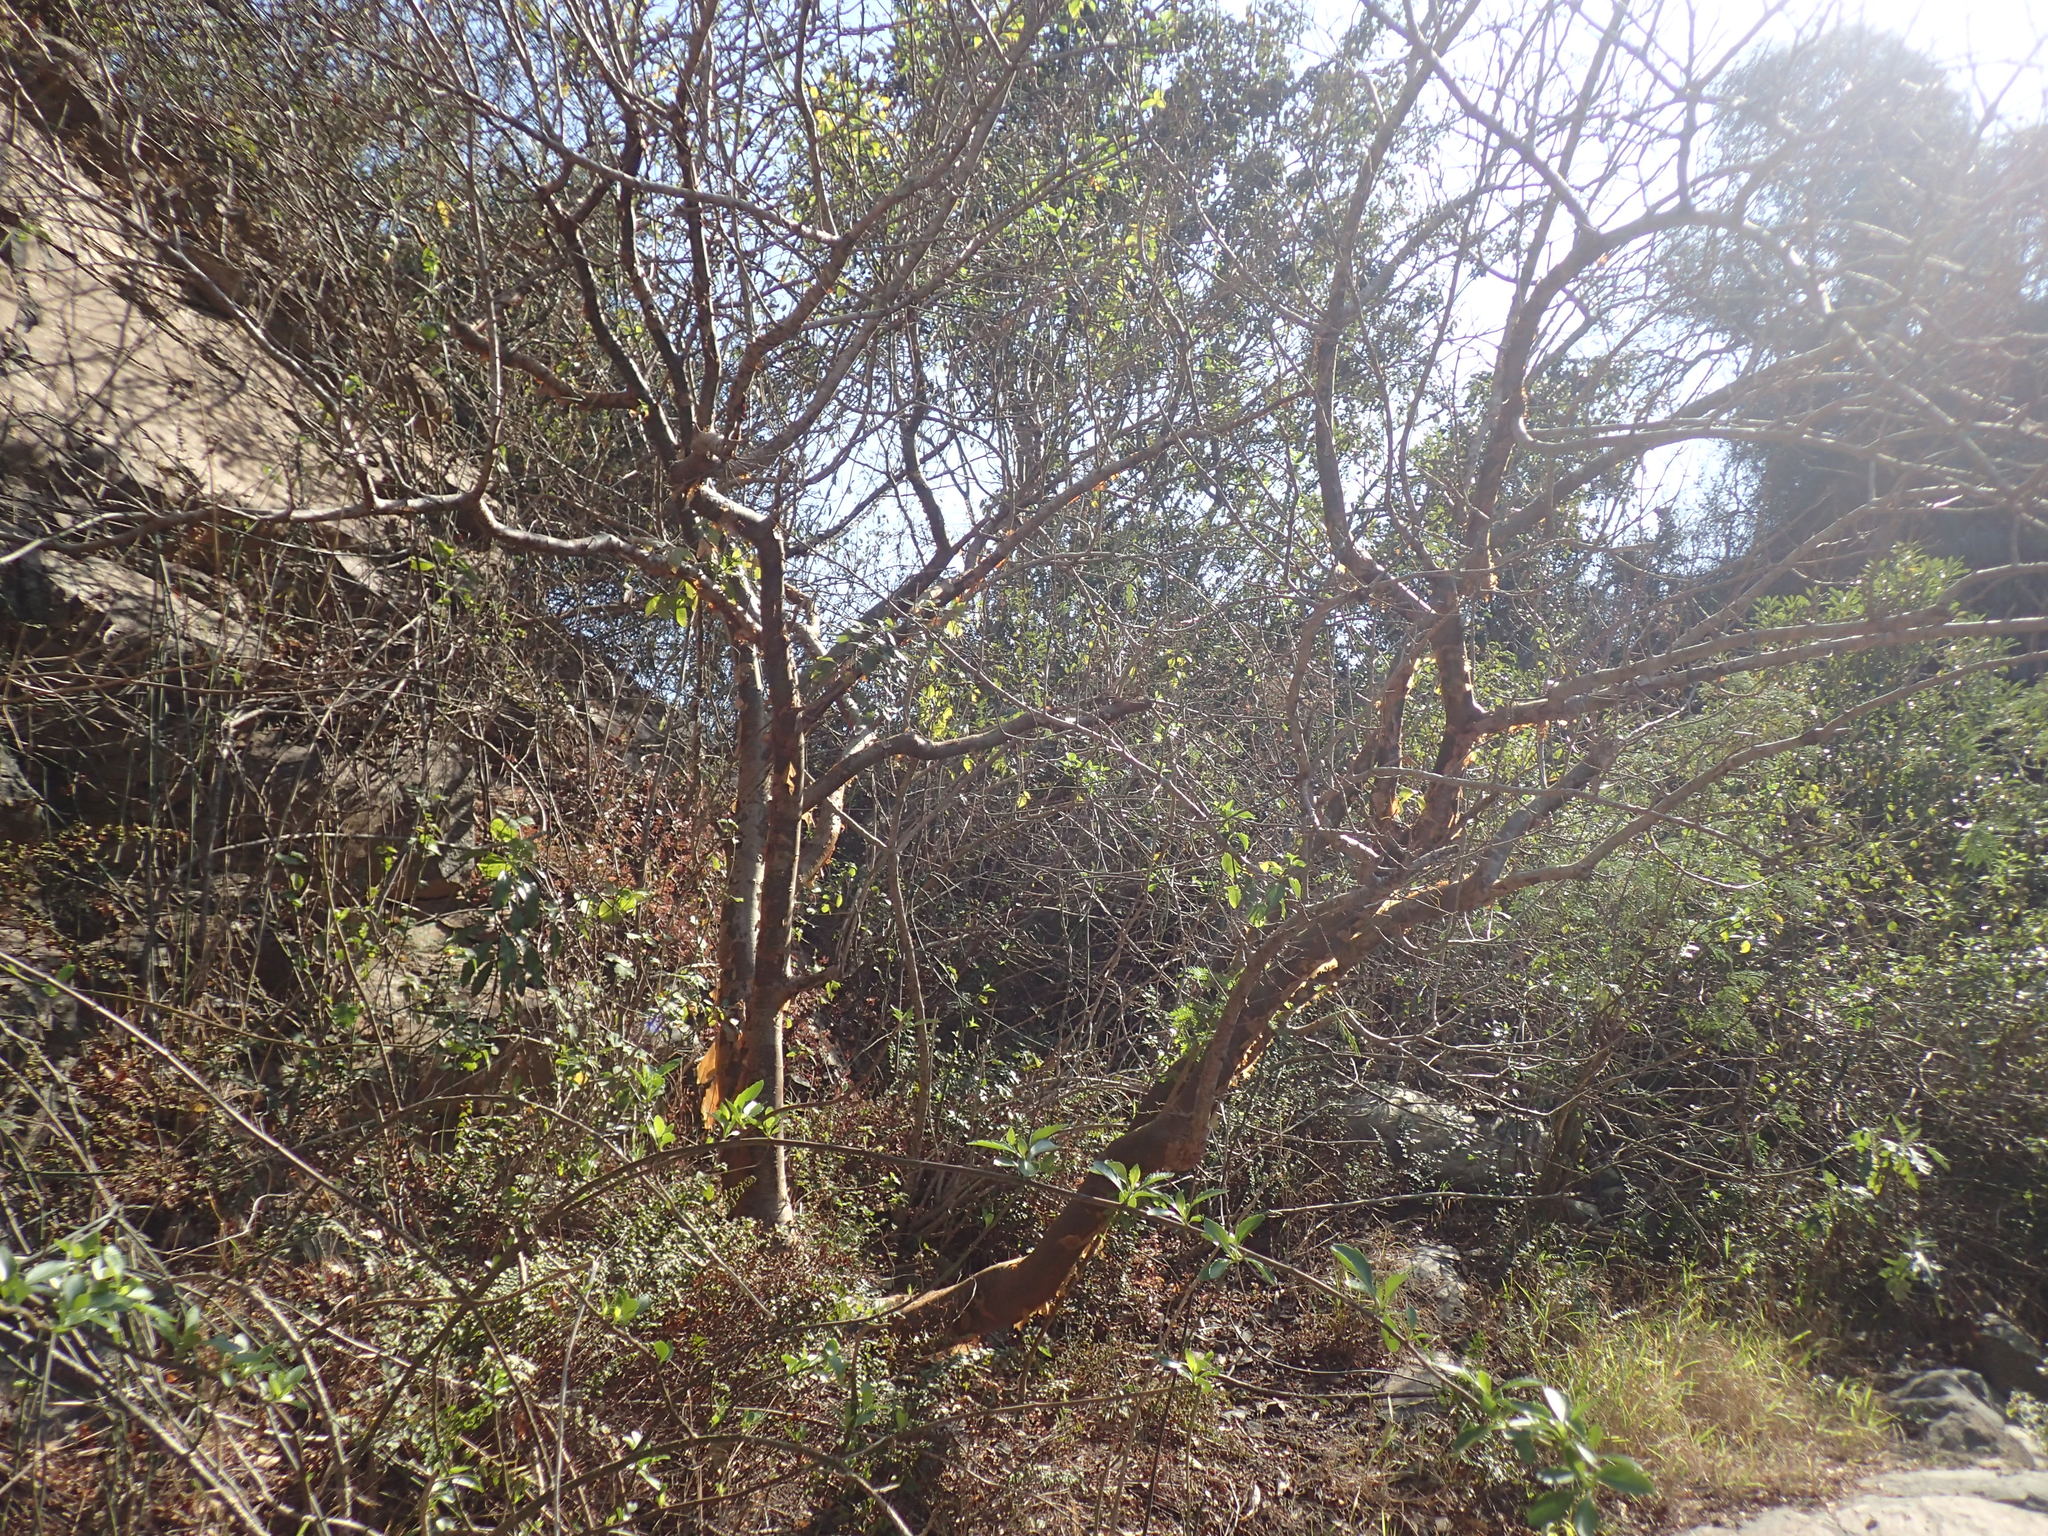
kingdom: Plantae
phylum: Tracheophyta
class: Magnoliopsida
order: Sapindales
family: Burseraceae
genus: Commiphora
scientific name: Commiphora harveyi
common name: Copper-stem corkwood
